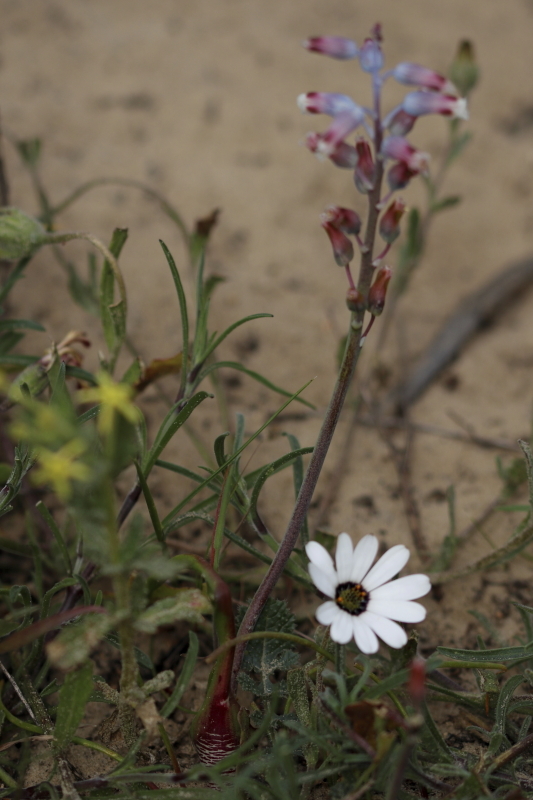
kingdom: Plantae
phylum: Tracheophyta
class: Liliopsida
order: Asparagales
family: Asparagaceae
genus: Lachenalia
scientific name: Lachenalia unifolia
